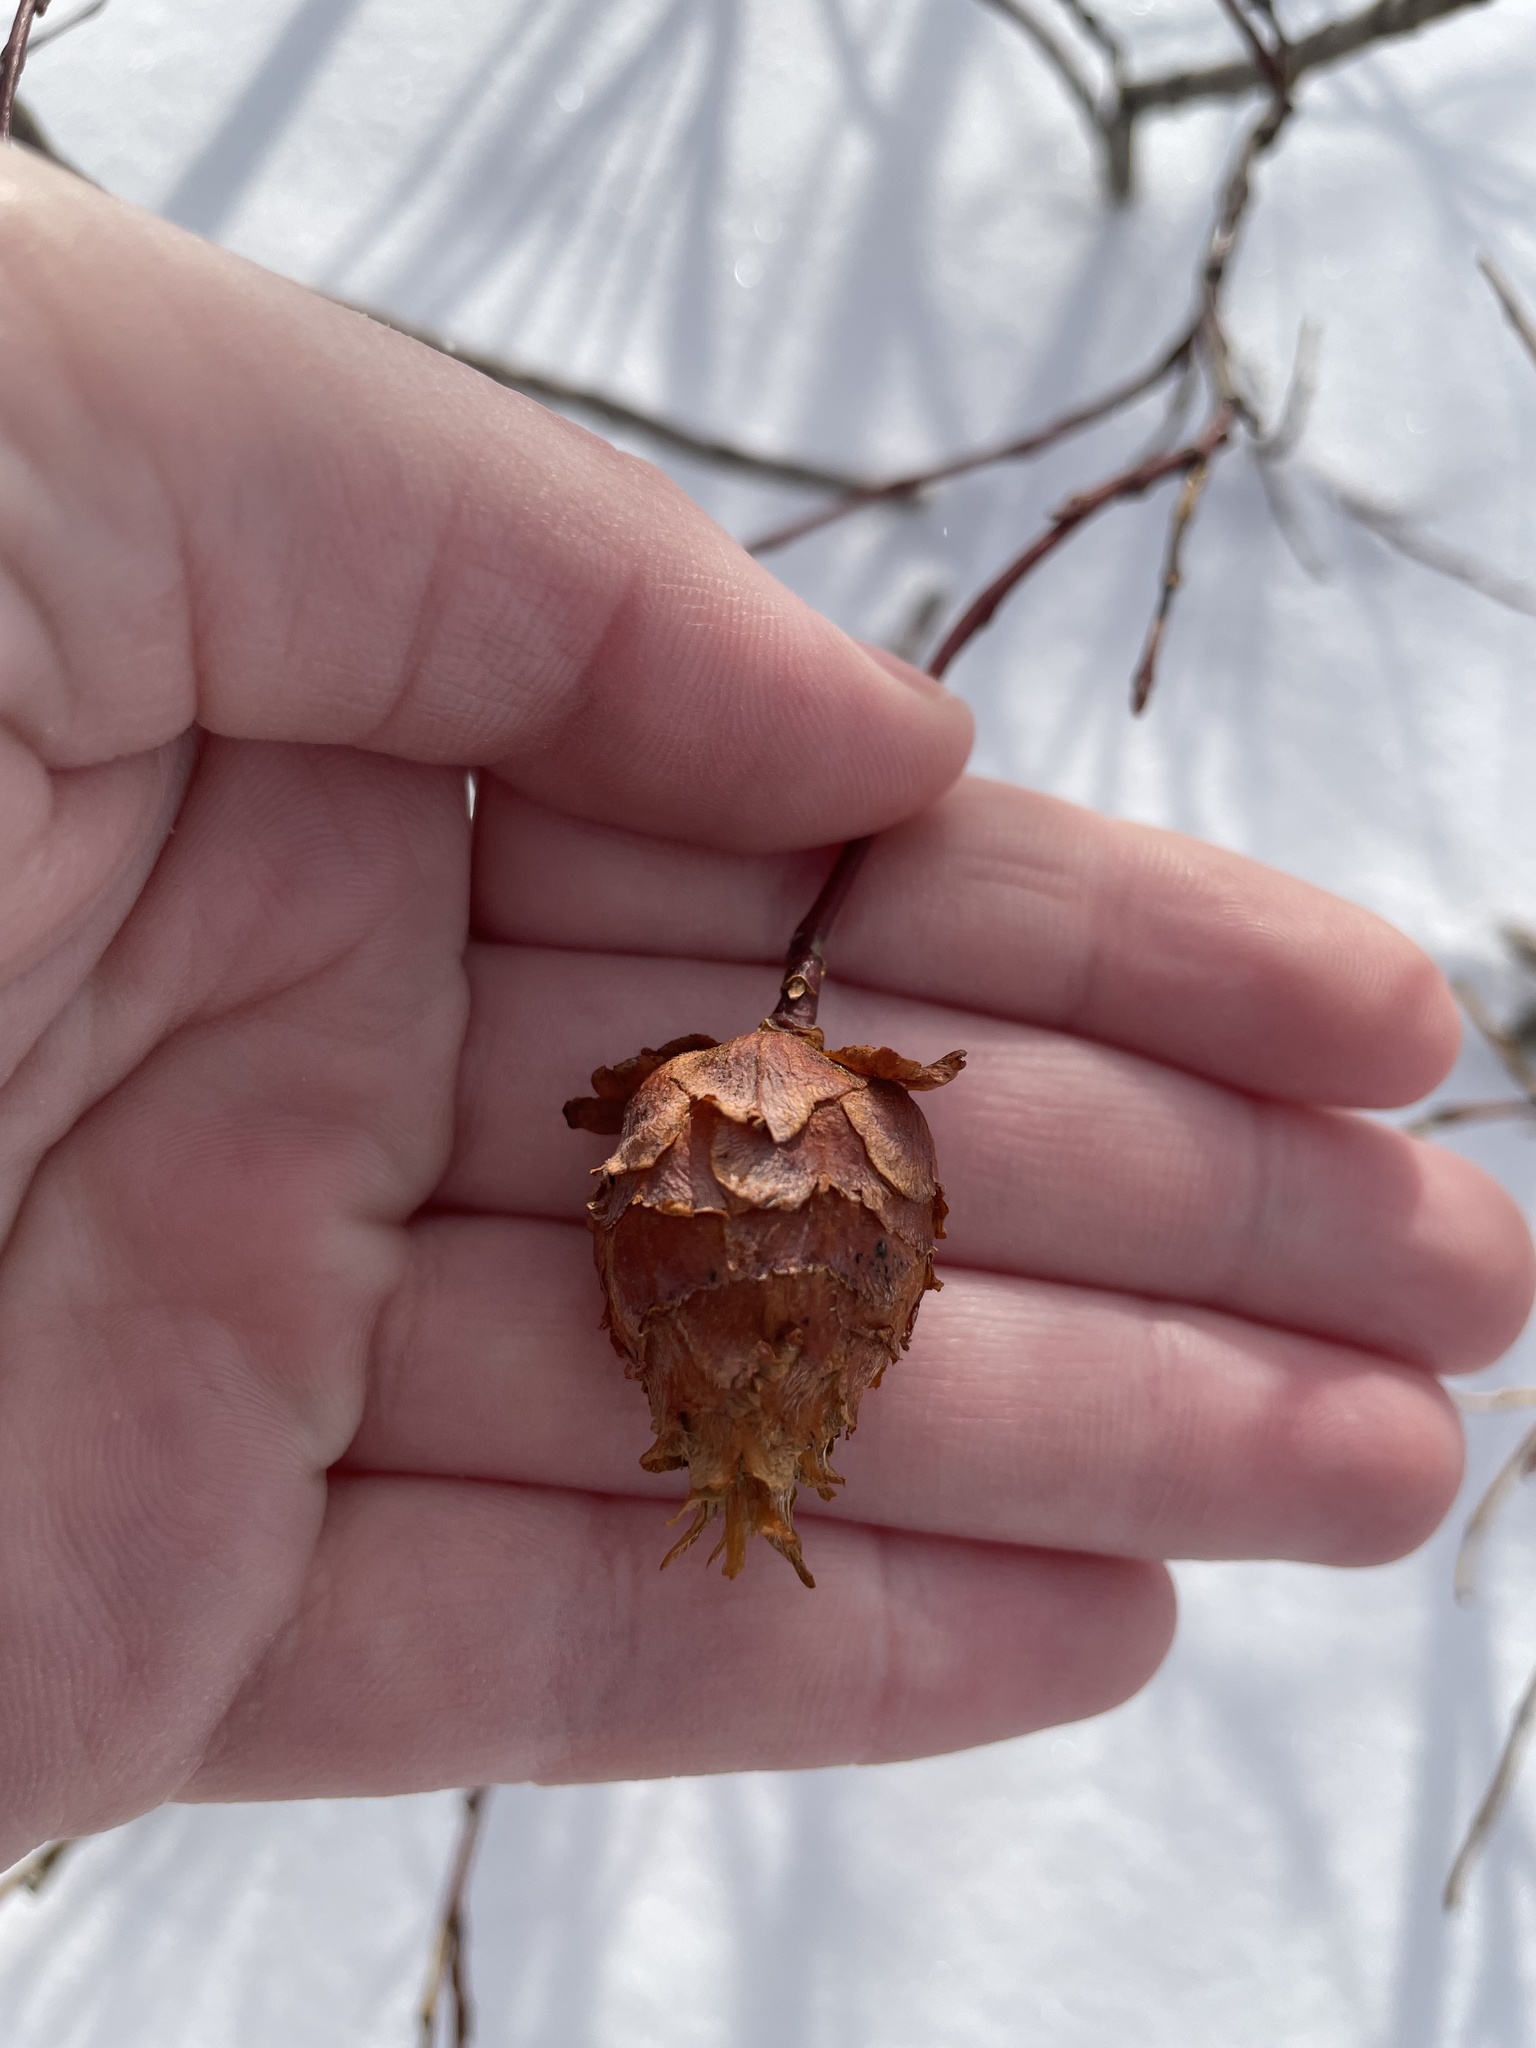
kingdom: Animalia
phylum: Arthropoda
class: Insecta
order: Diptera
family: Cecidomyiidae
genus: Rabdophaga
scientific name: Rabdophaga strobiloides
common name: Willow pinecone gall midge
